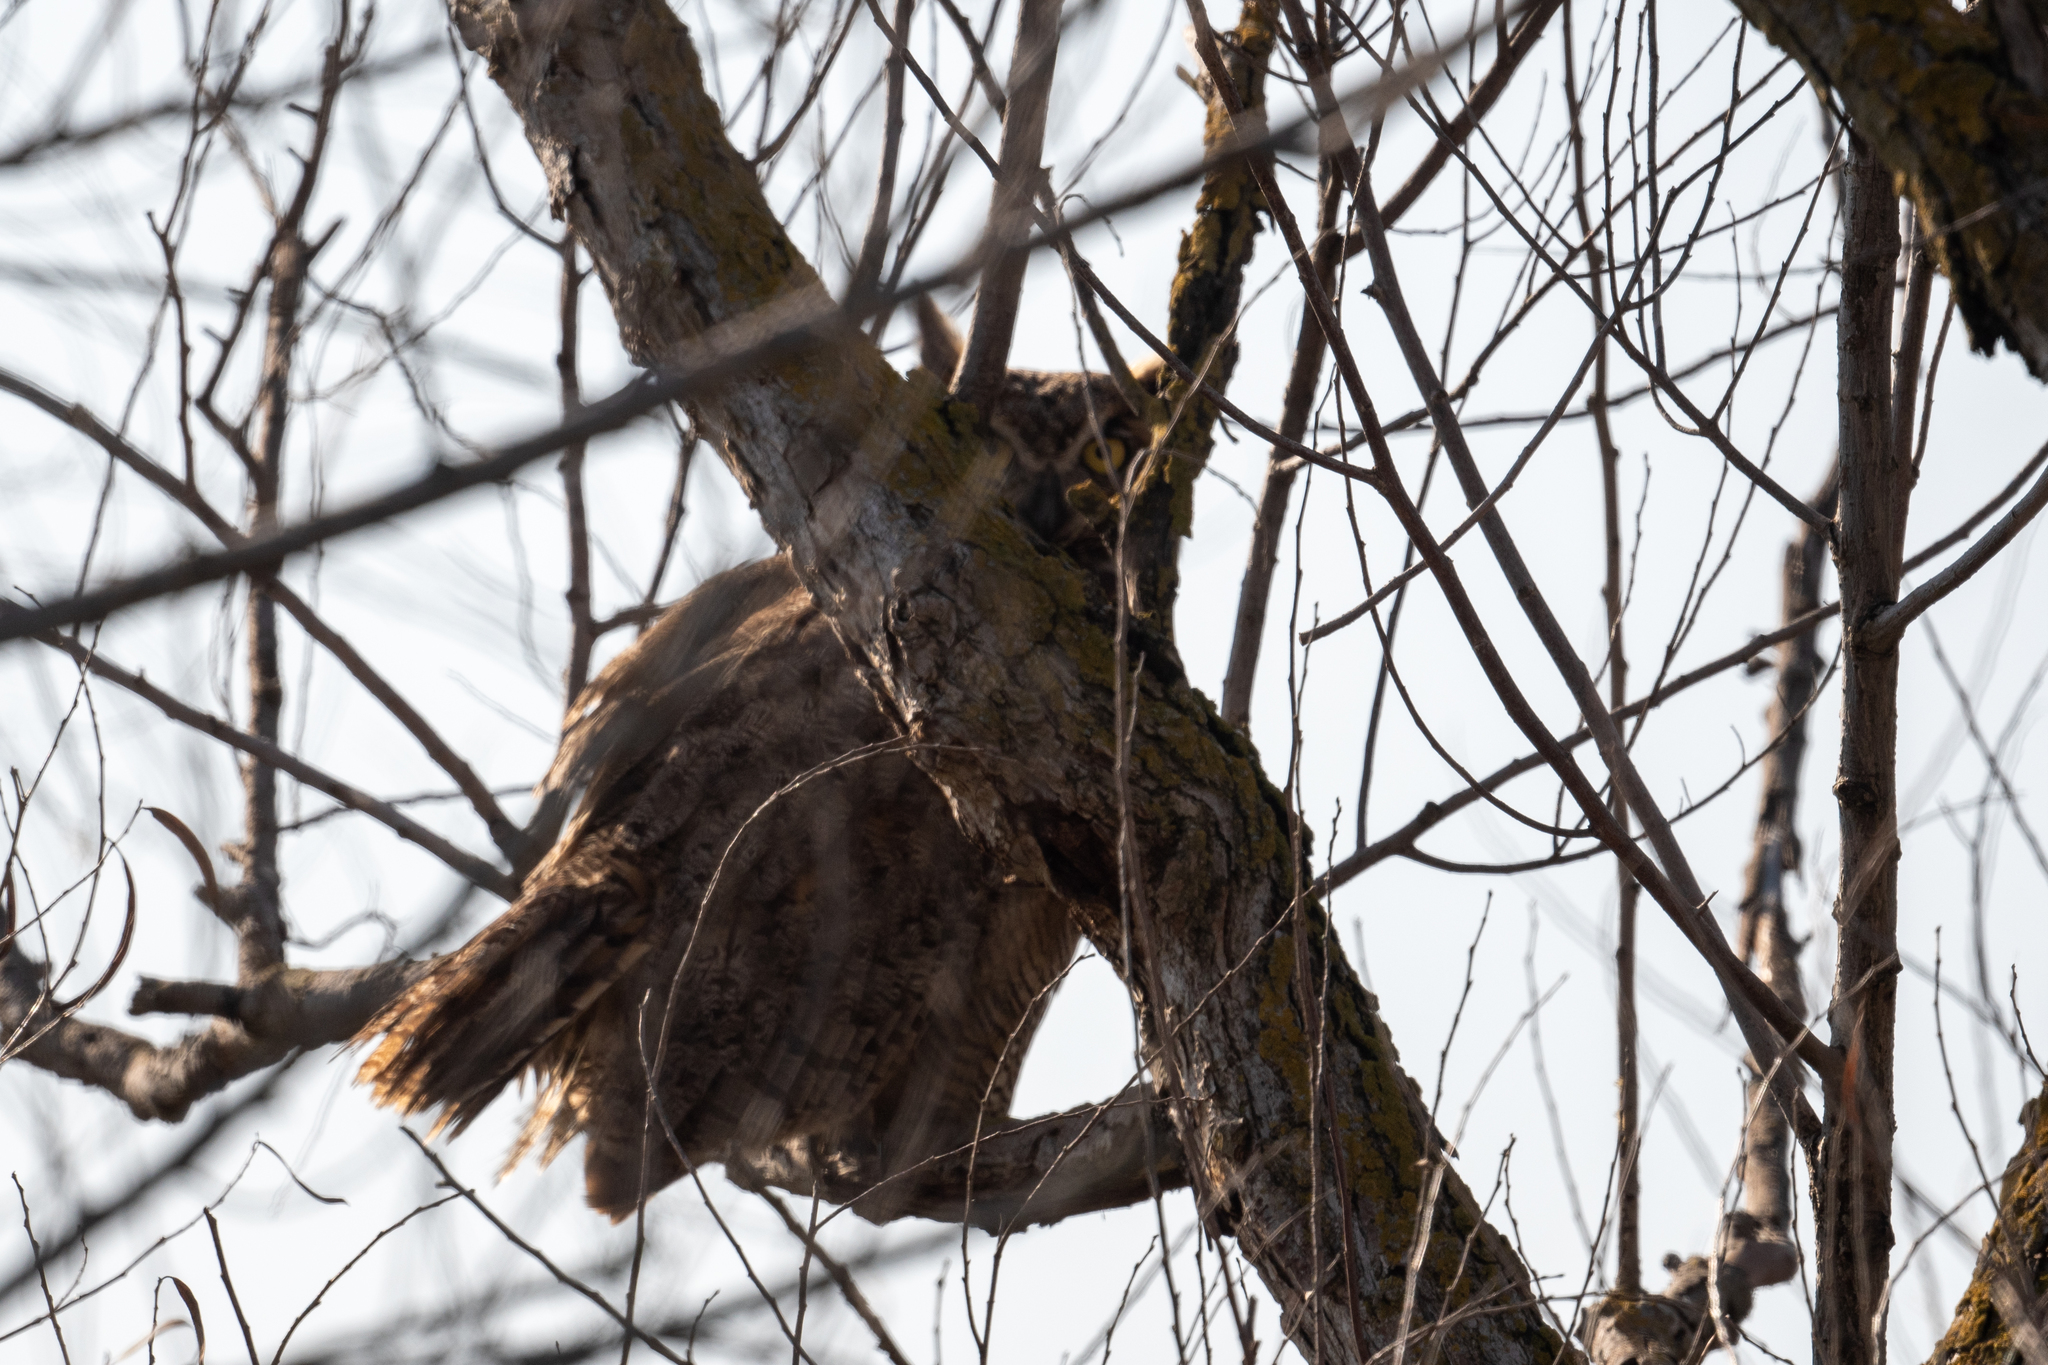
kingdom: Animalia
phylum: Chordata
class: Aves
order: Strigiformes
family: Strigidae
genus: Bubo
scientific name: Bubo virginianus
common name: Great horned owl
